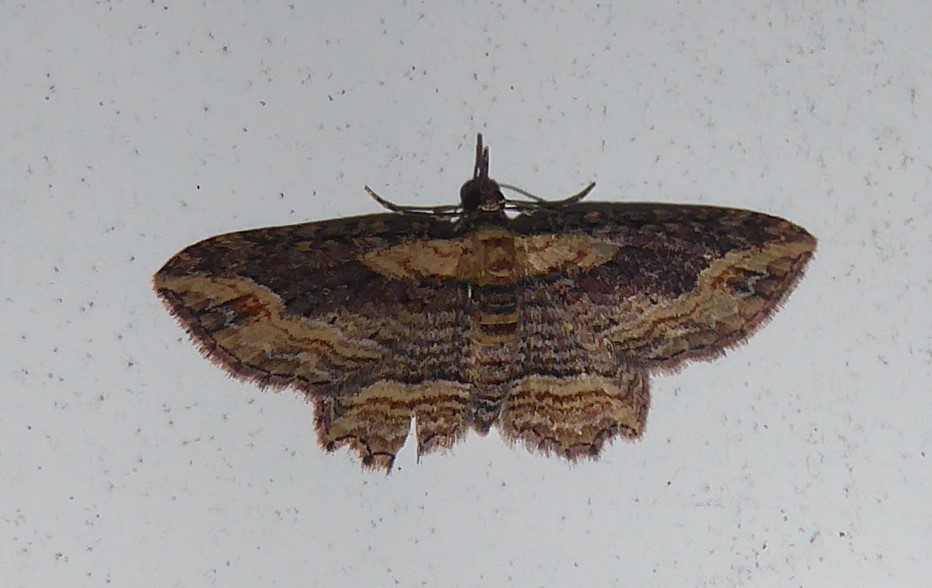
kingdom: Animalia
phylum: Arthropoda
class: Insecta
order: Lepidoptera
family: Geometridae
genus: Chloroclystis
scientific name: Chloroclystis filata
